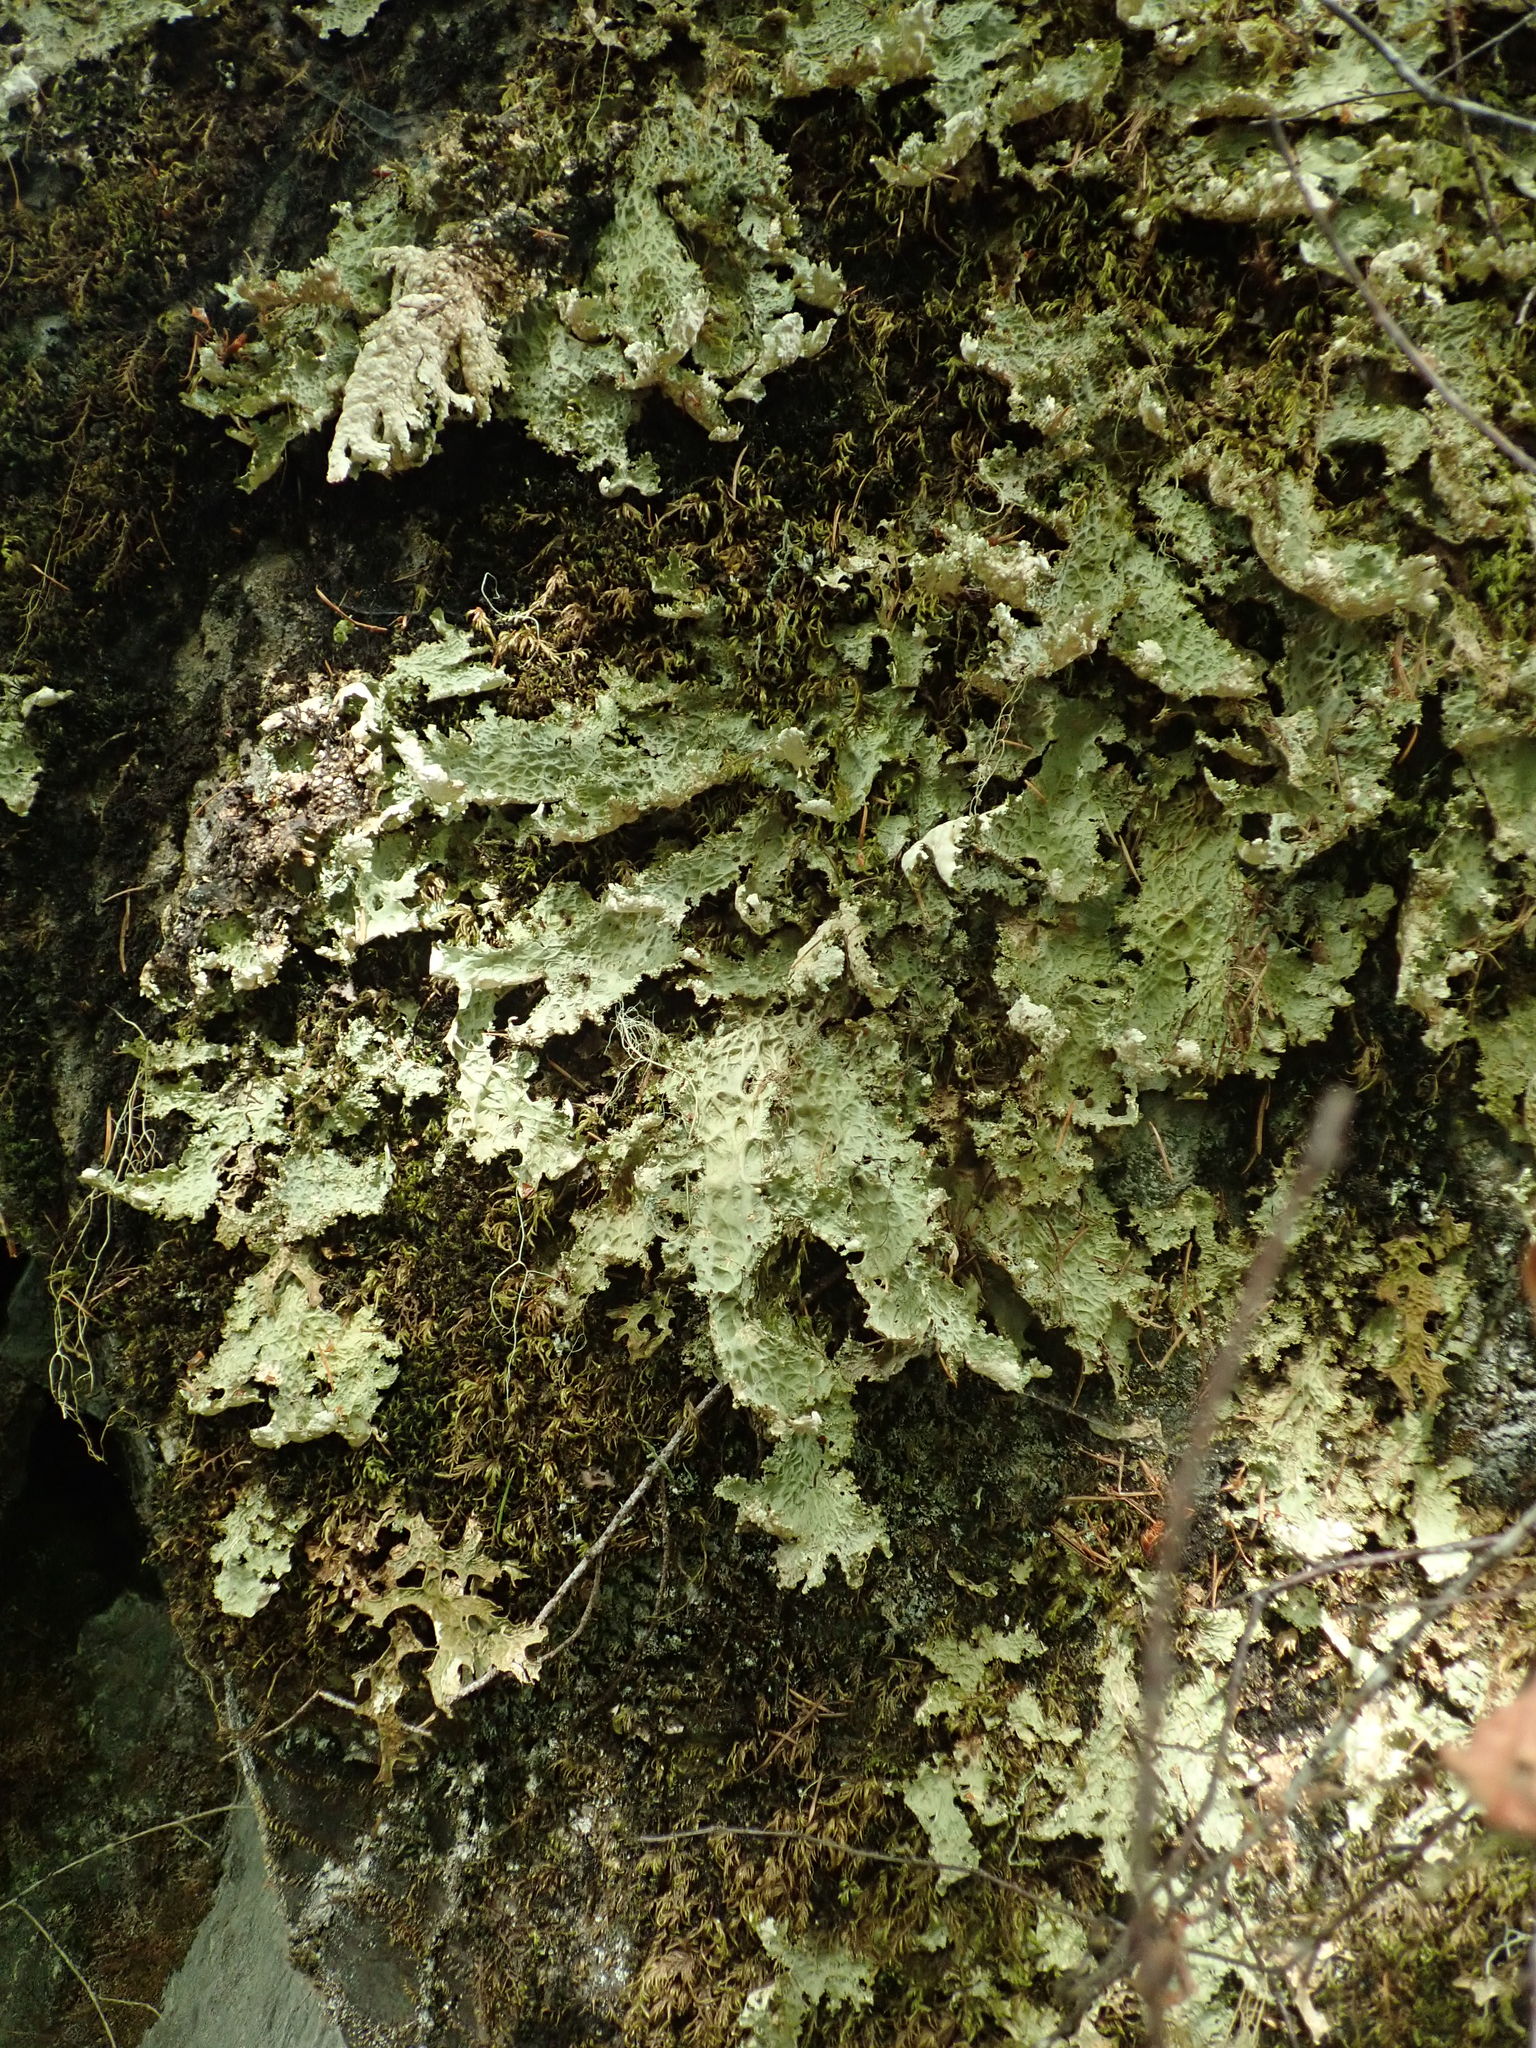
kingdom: Fungi
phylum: Ascomycota
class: Lecanoromycetes
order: Peltigerales
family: Lobariaceae
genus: Lobaria
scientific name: Lobaria oregana
